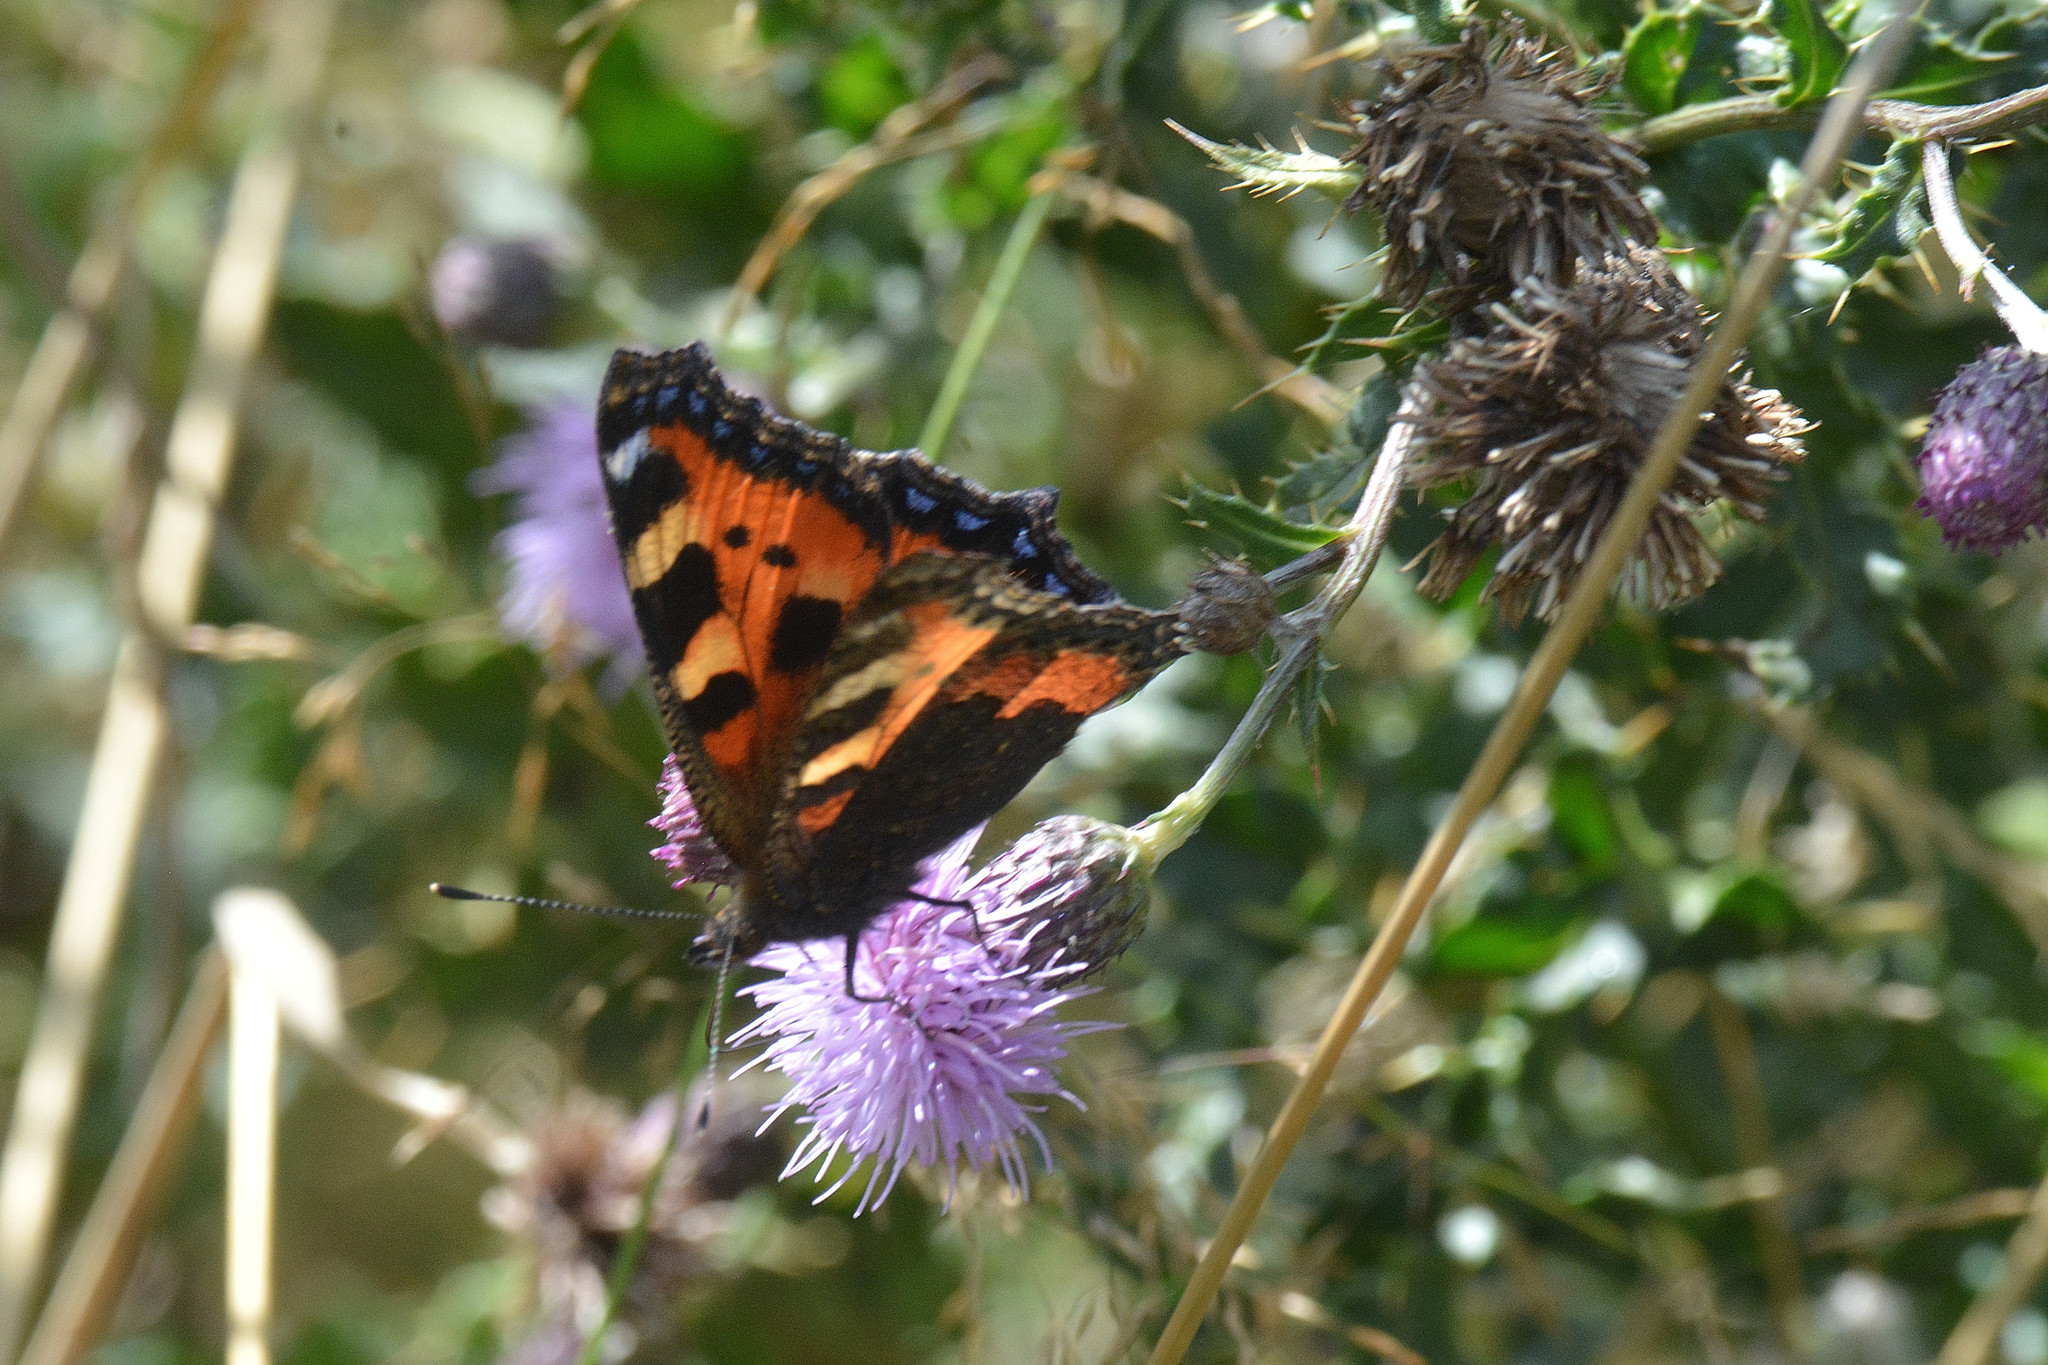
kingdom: Animalia
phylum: Arthropoda
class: Insecta
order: Lepidoptera
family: Nymphalidae
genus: Aglais
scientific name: Aglais urticae
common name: Small tortoiseshell
